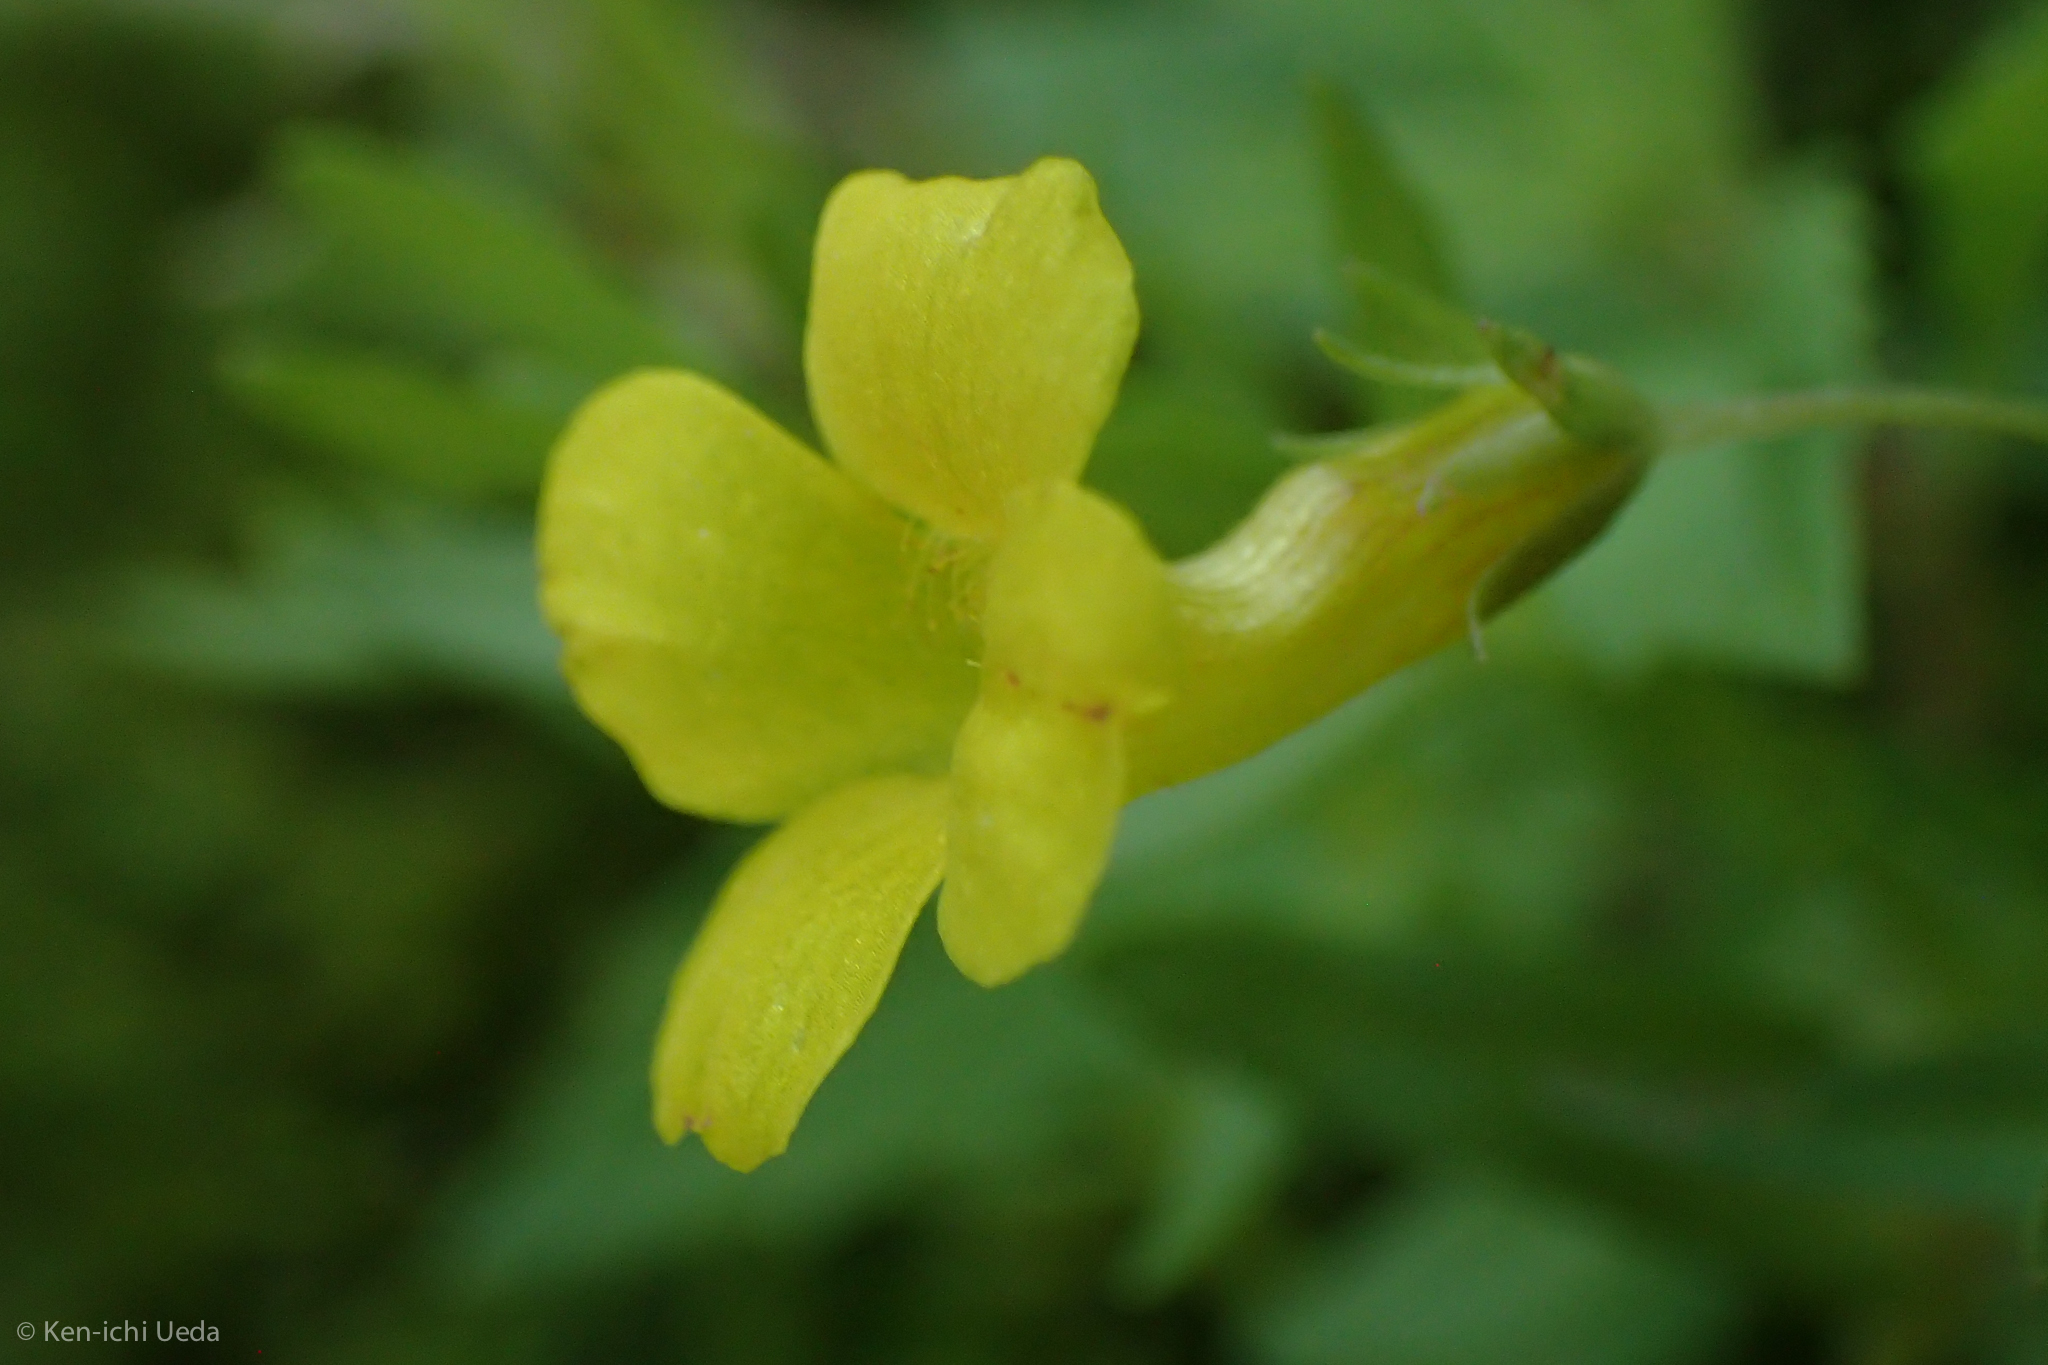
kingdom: Plantae
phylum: Tracheophyta
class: Magnoliopsida
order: Lamiales
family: Plantaginaceae
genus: Gratiola
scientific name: Gratiola lutea
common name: Golden hedge-hyssop
